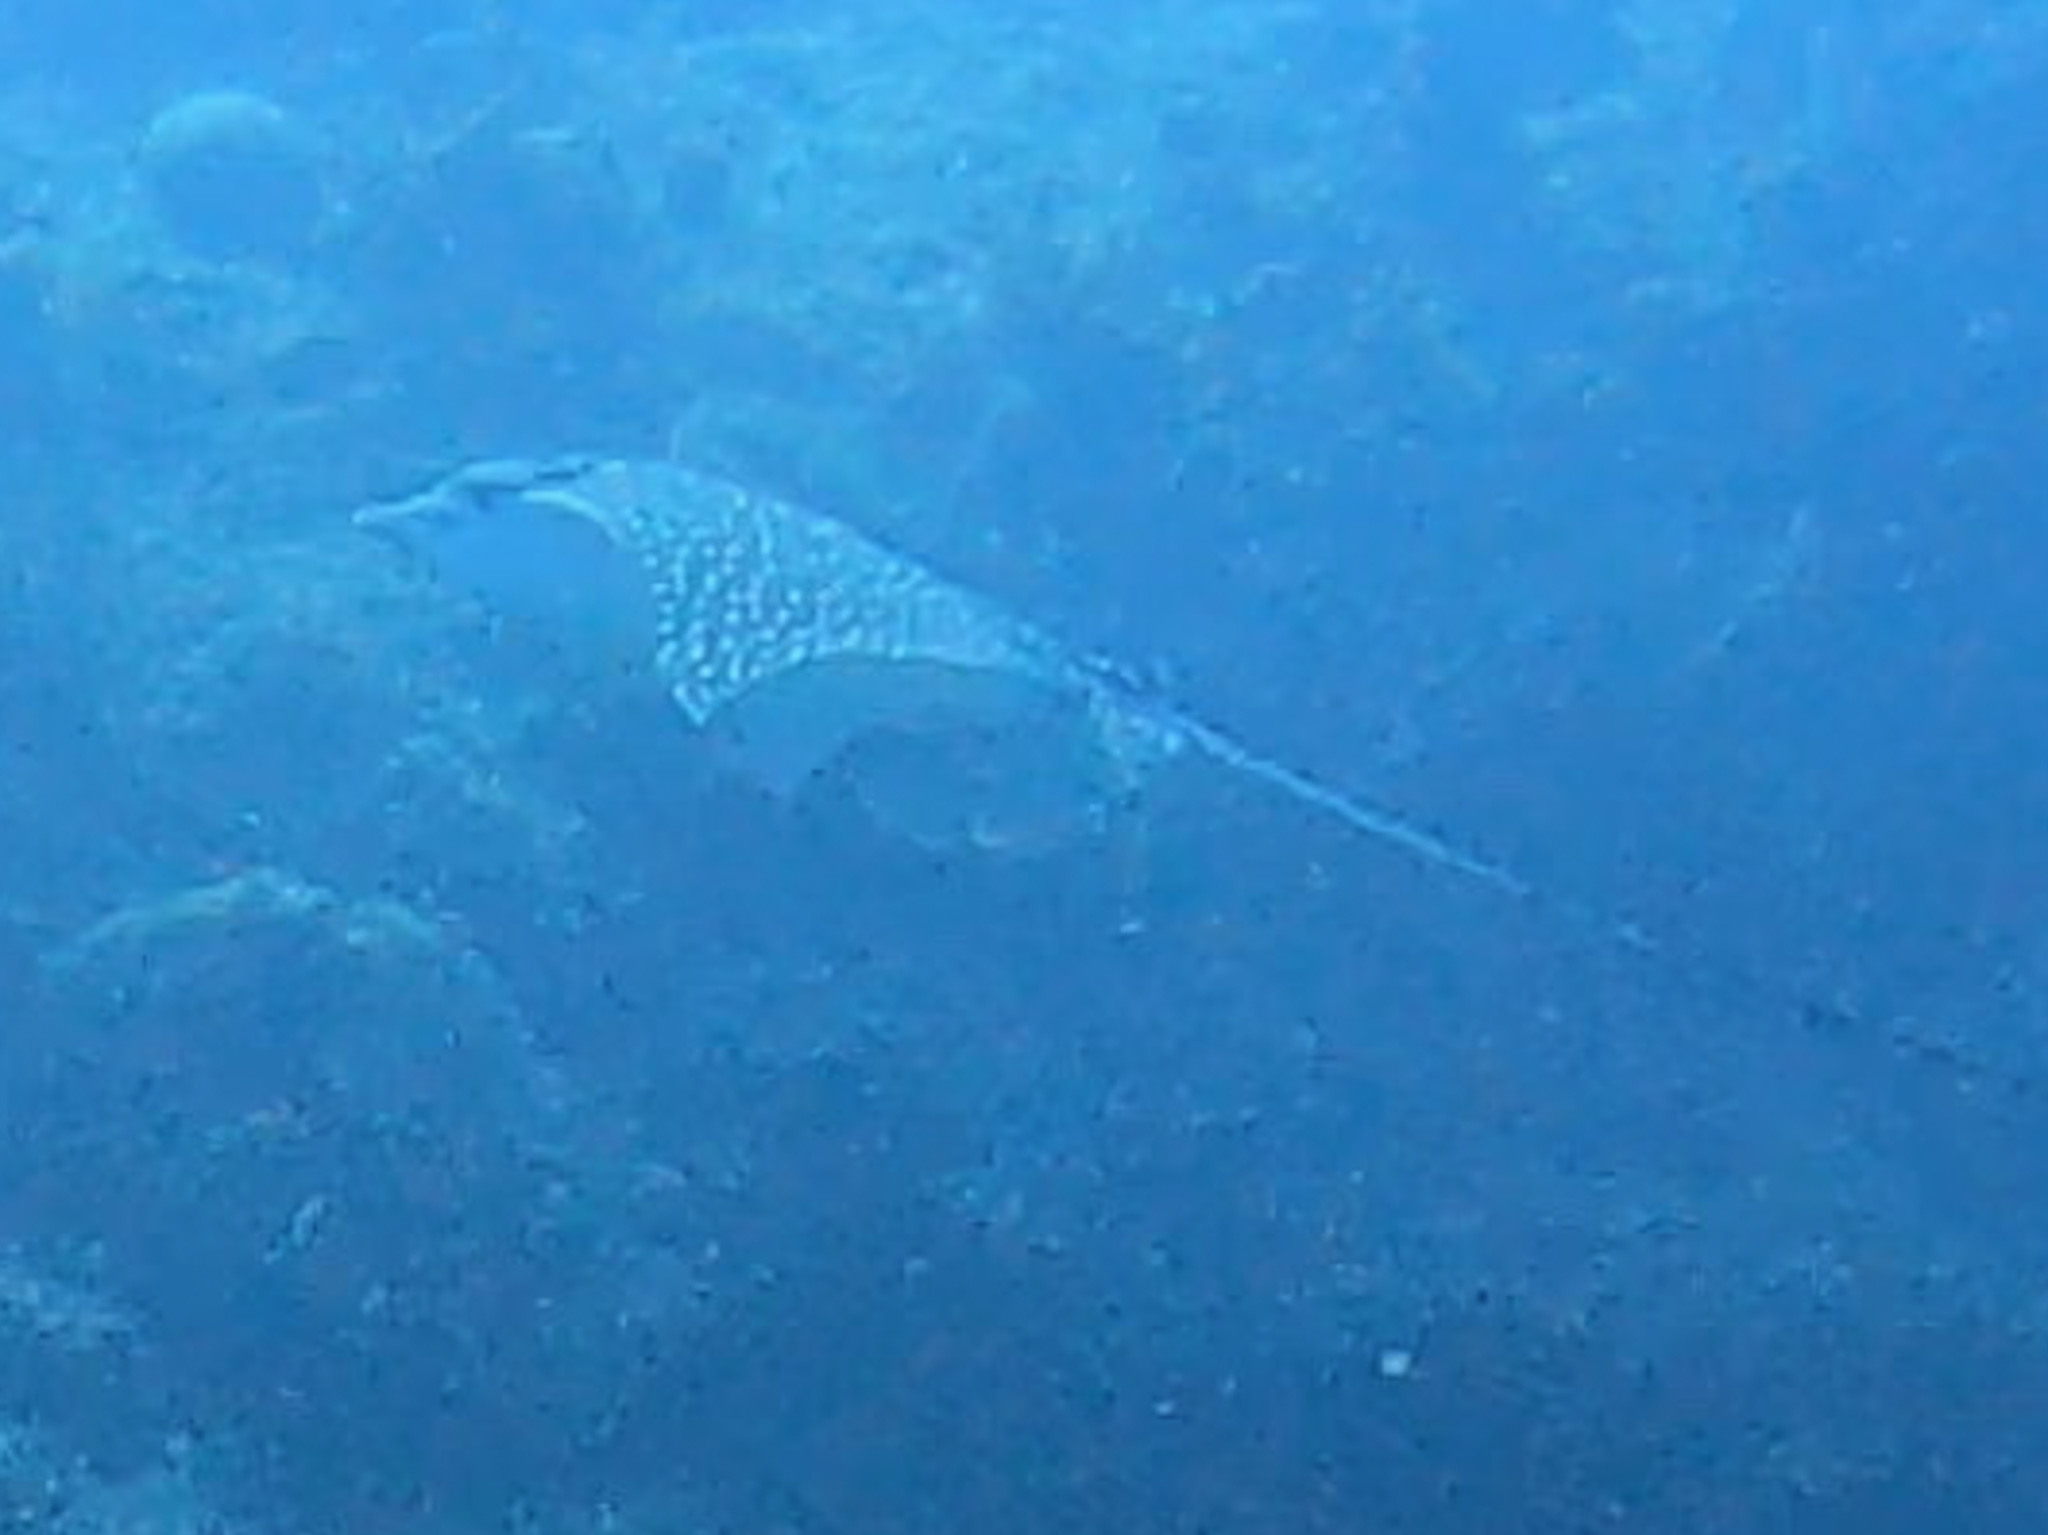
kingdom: Animalia
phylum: Chordata
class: Elasmobranchii
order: Myliobatiformes
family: Myliobatidae
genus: Aetobatus
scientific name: Aetobatus narinari
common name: Spotted eagle ray
